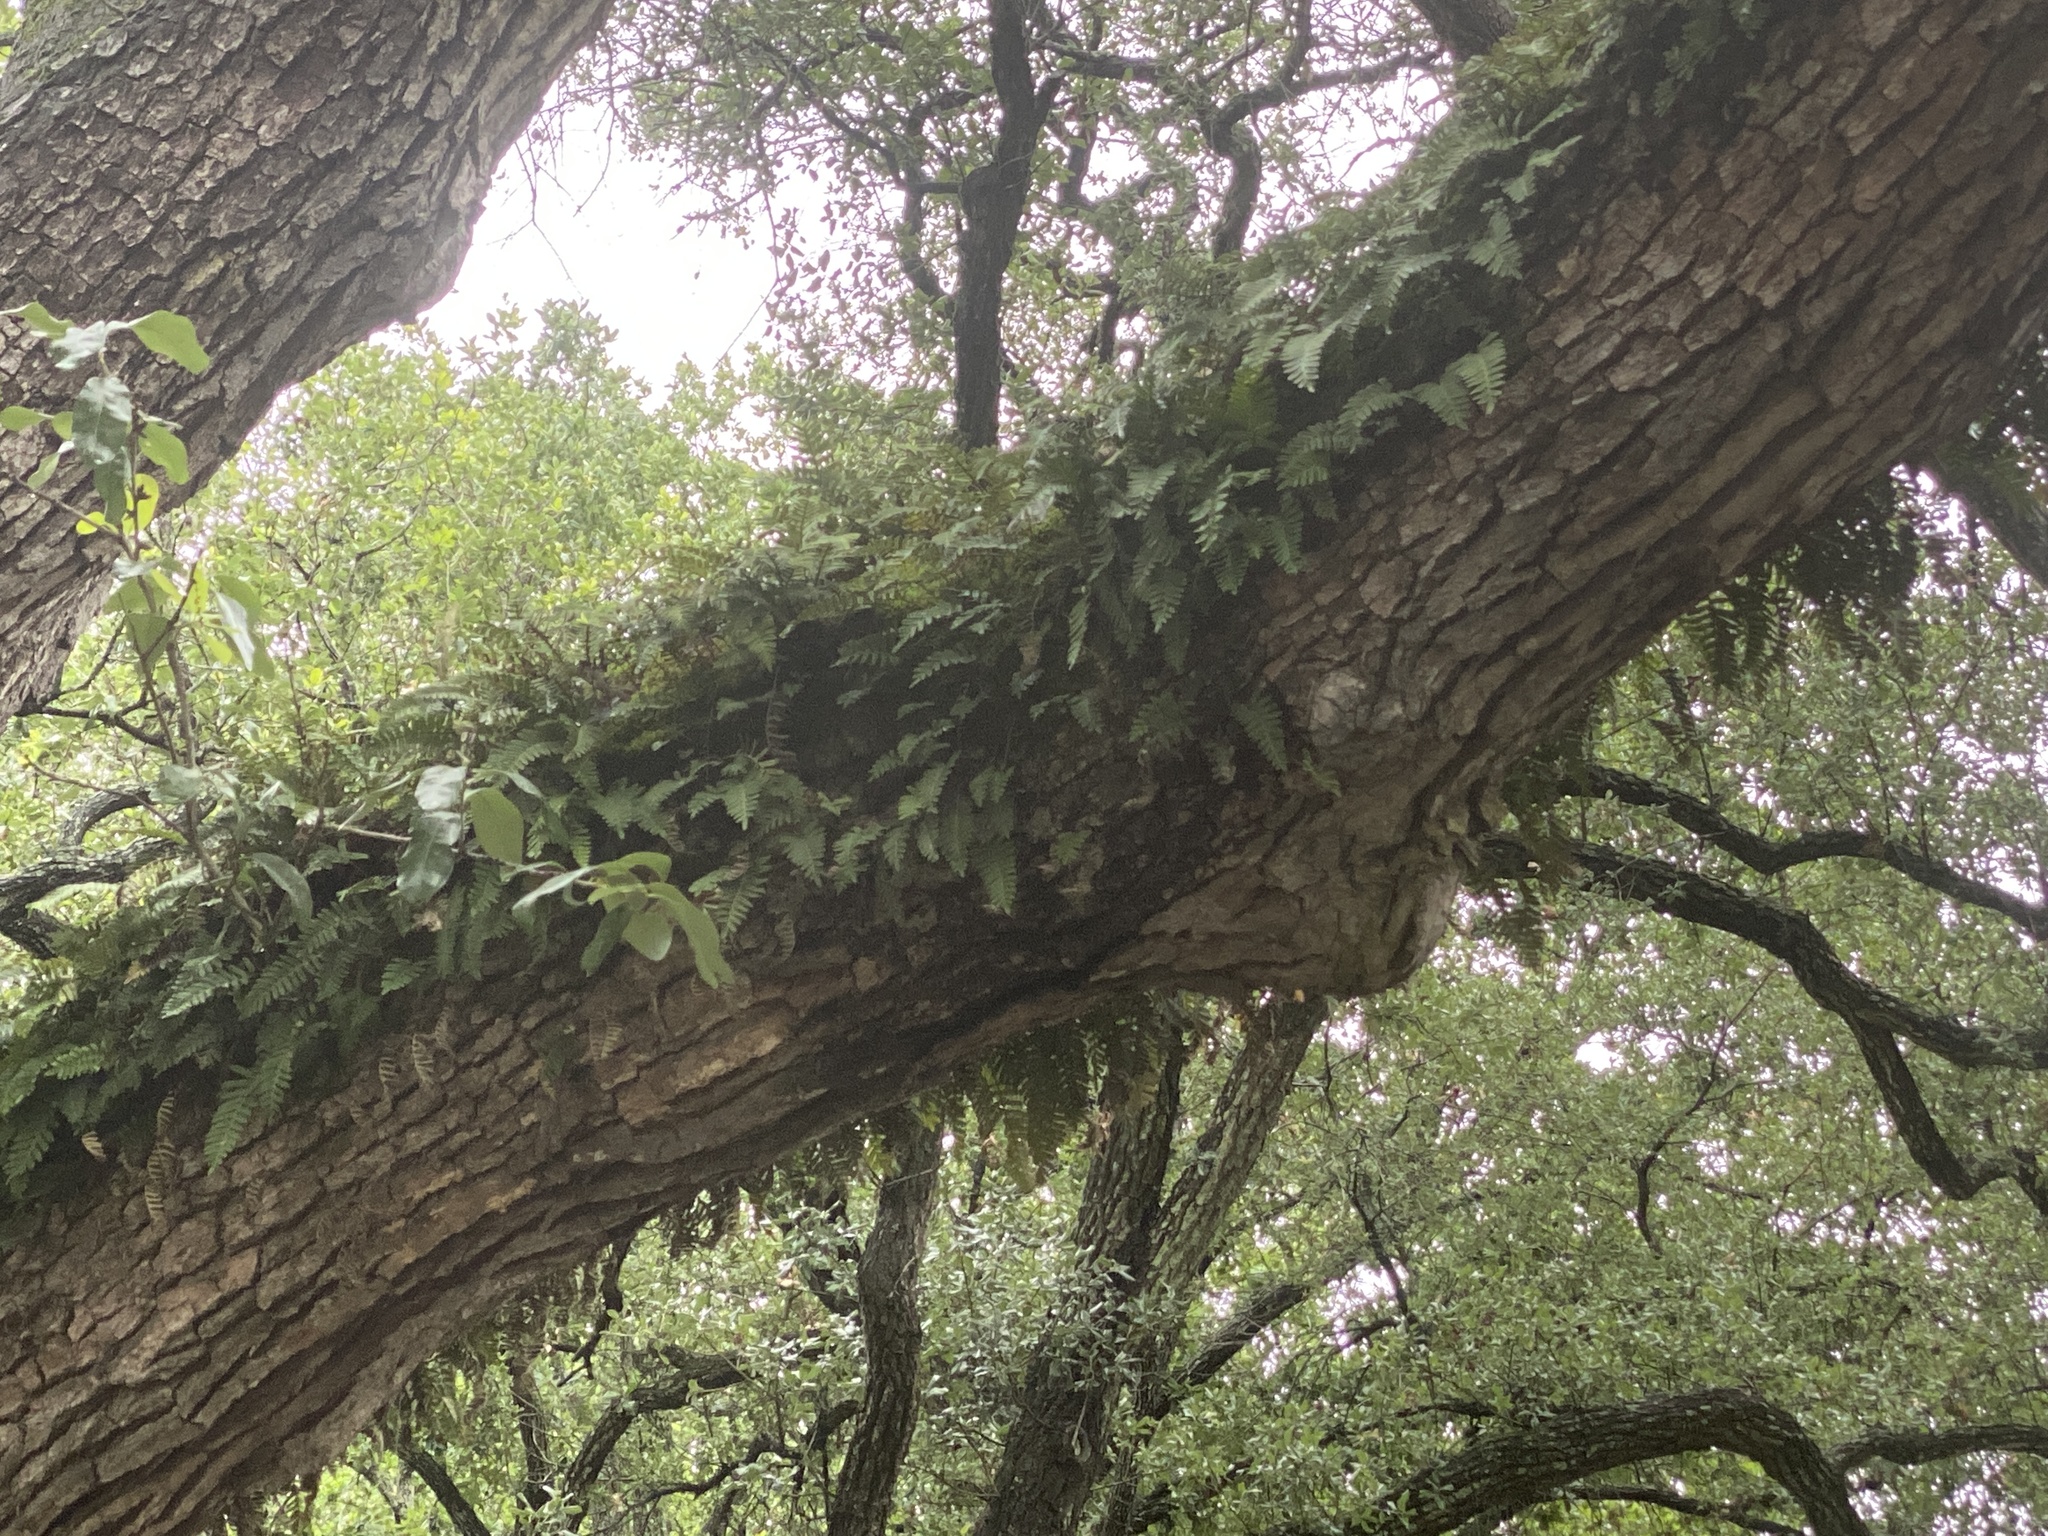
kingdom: Plantae
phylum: Tracheophyta
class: Polypodiopsida
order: Polypodiales
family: Polypodiaceae
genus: Pleopeltis
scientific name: Pleopeltis michauxiana
